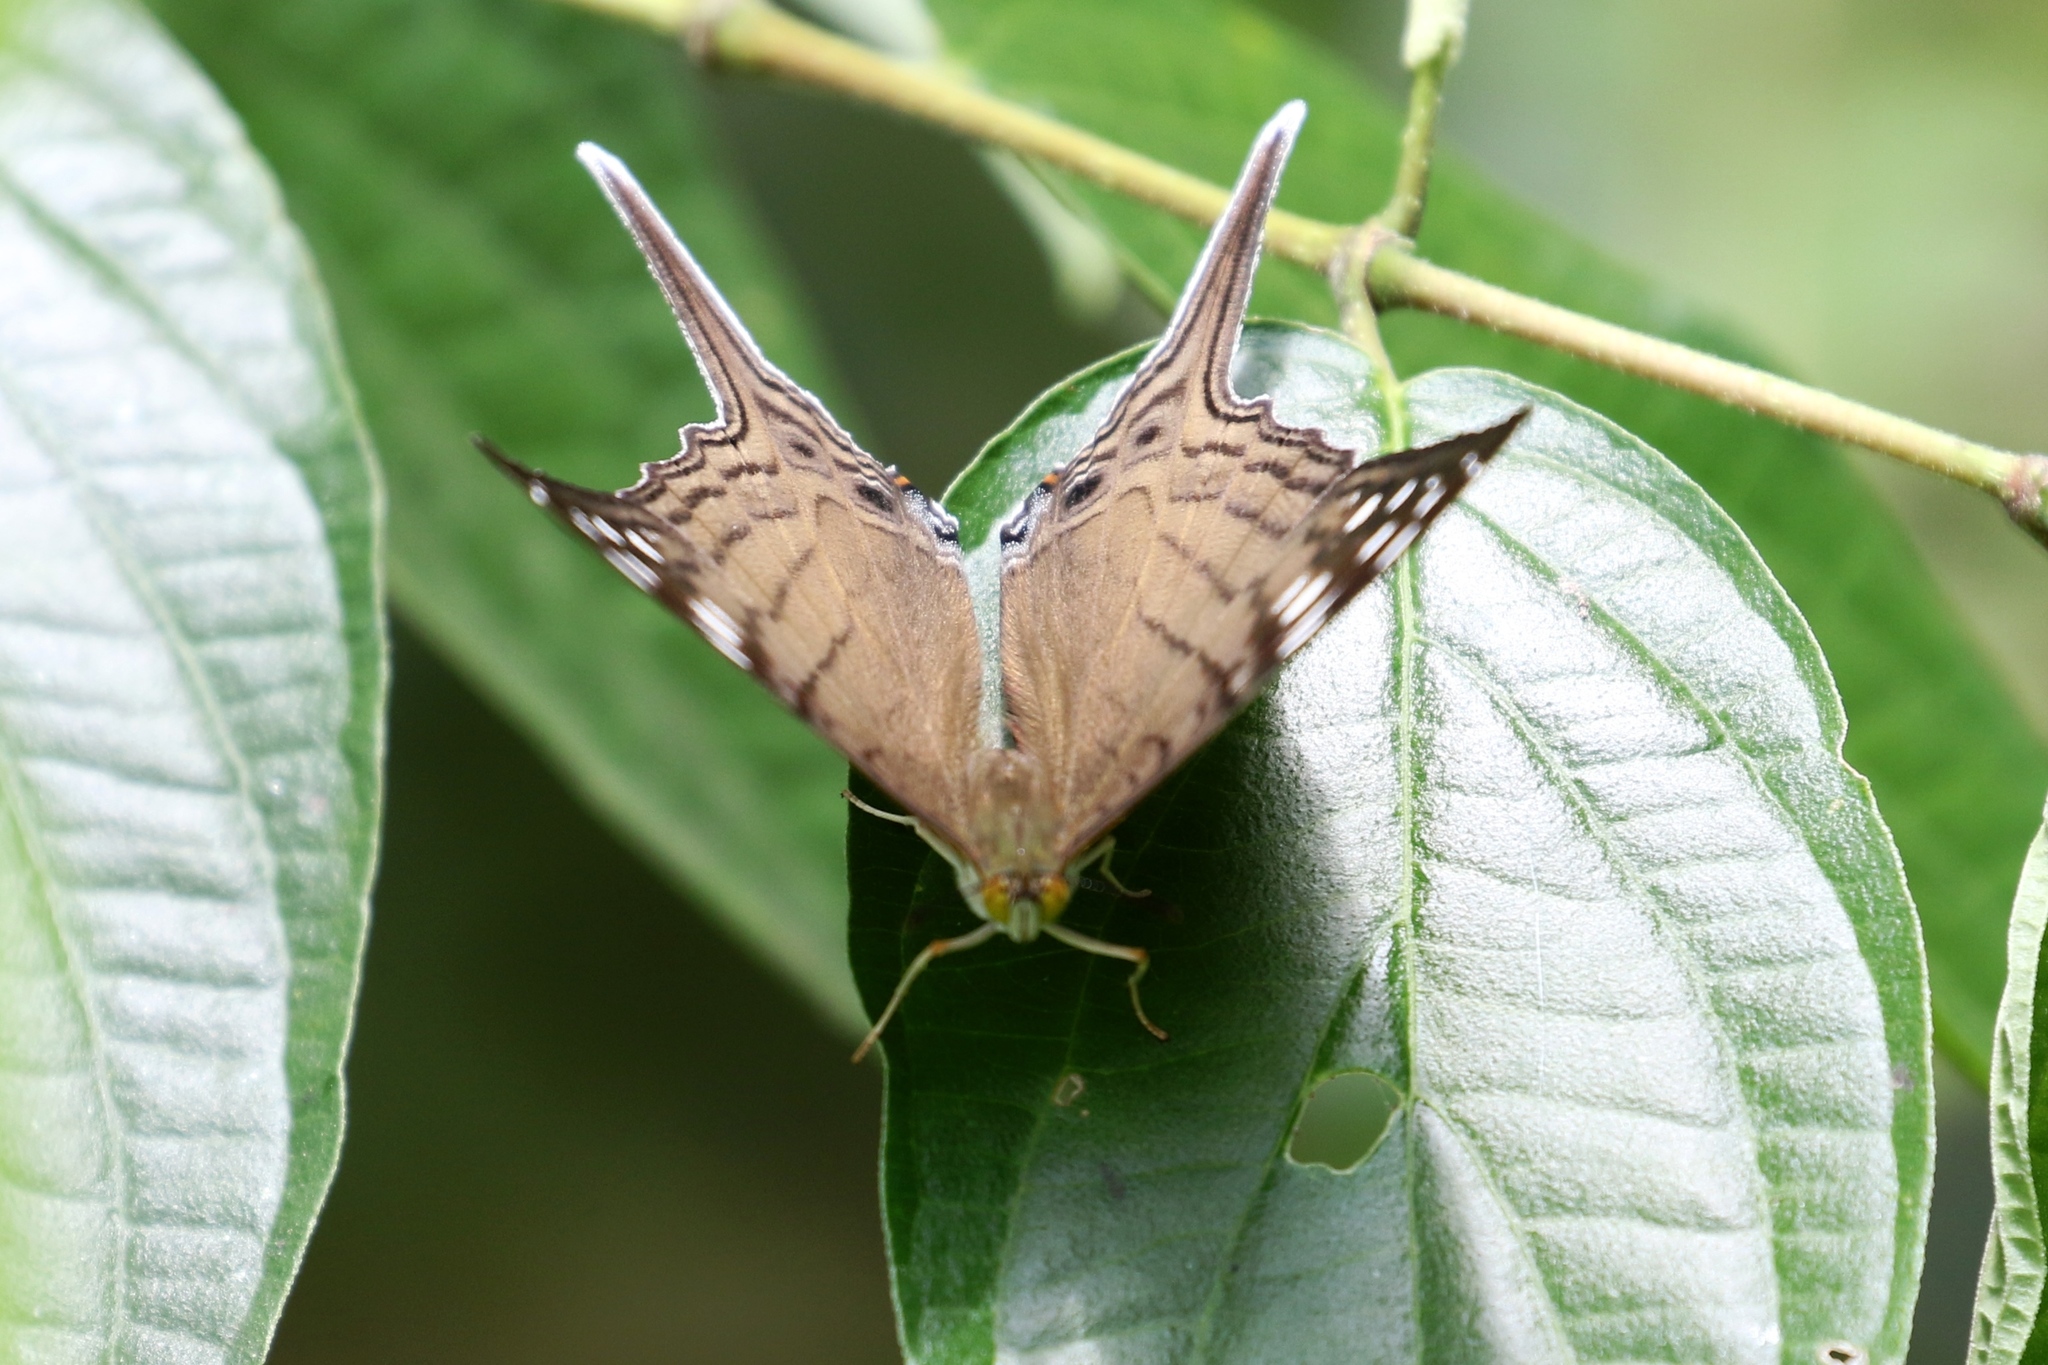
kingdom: Animalia
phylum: Arthropoda
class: Insecta
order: Lepidoptera
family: Nymphalidae
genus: Marpesia
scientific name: Marpesia merops
